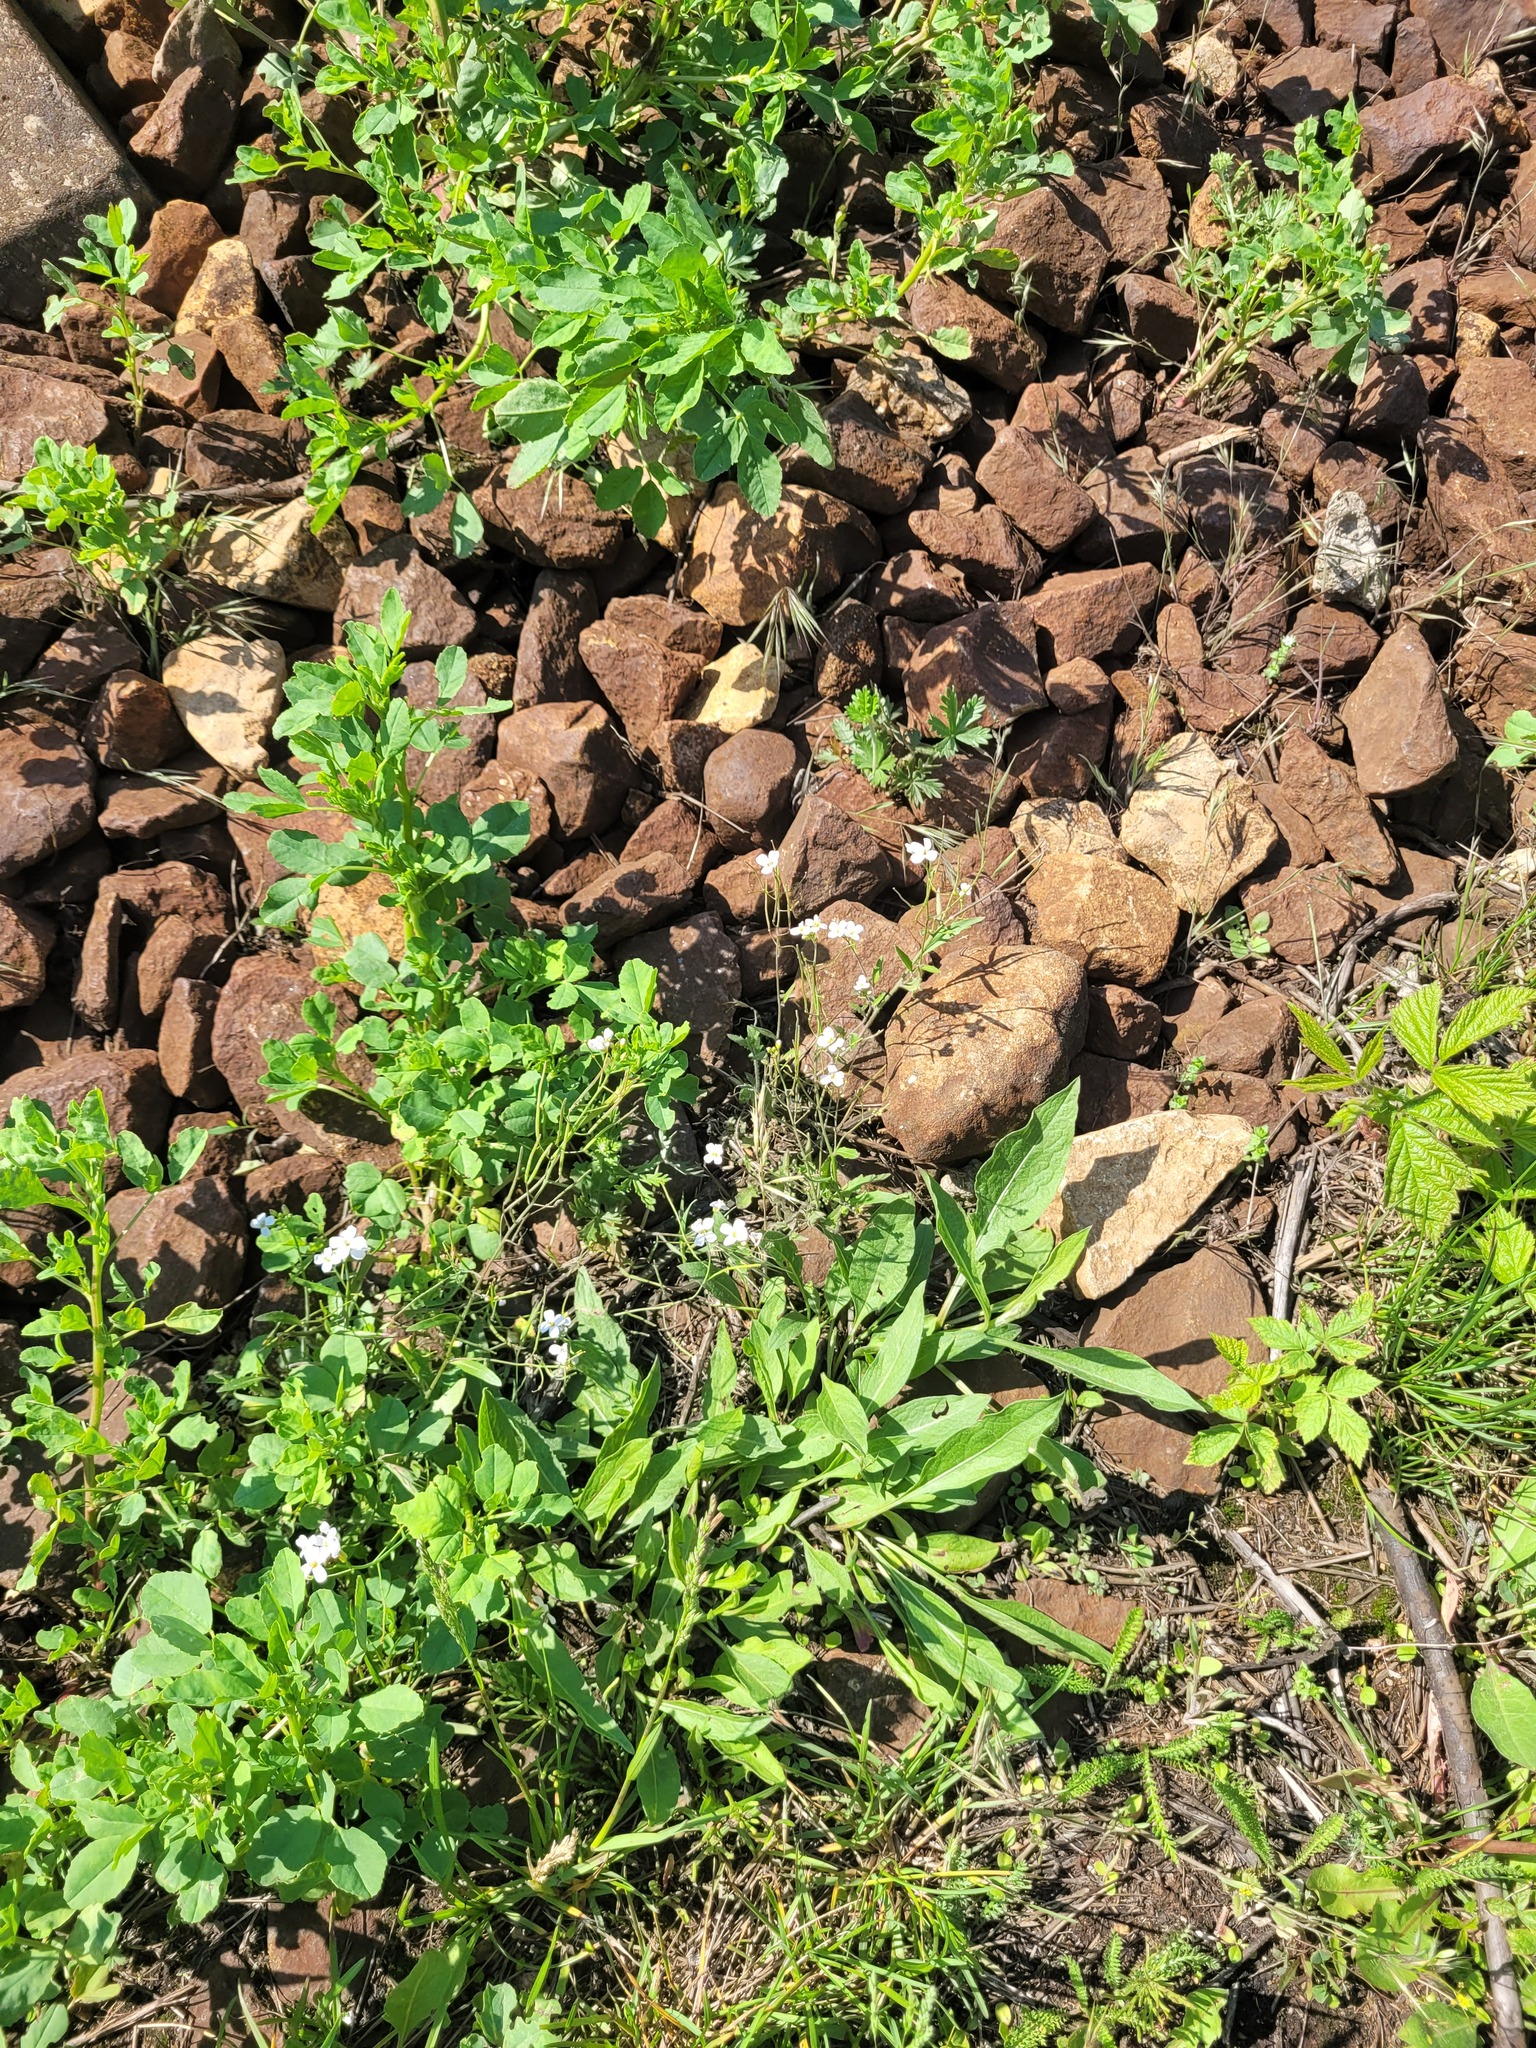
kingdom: Plantae
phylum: Tracheophyta
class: Magnoliopsida
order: Brassicales
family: Brassicaceae
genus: Arabidopsis
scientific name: Arabidopsis arenosa
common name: Sand rock-cress
